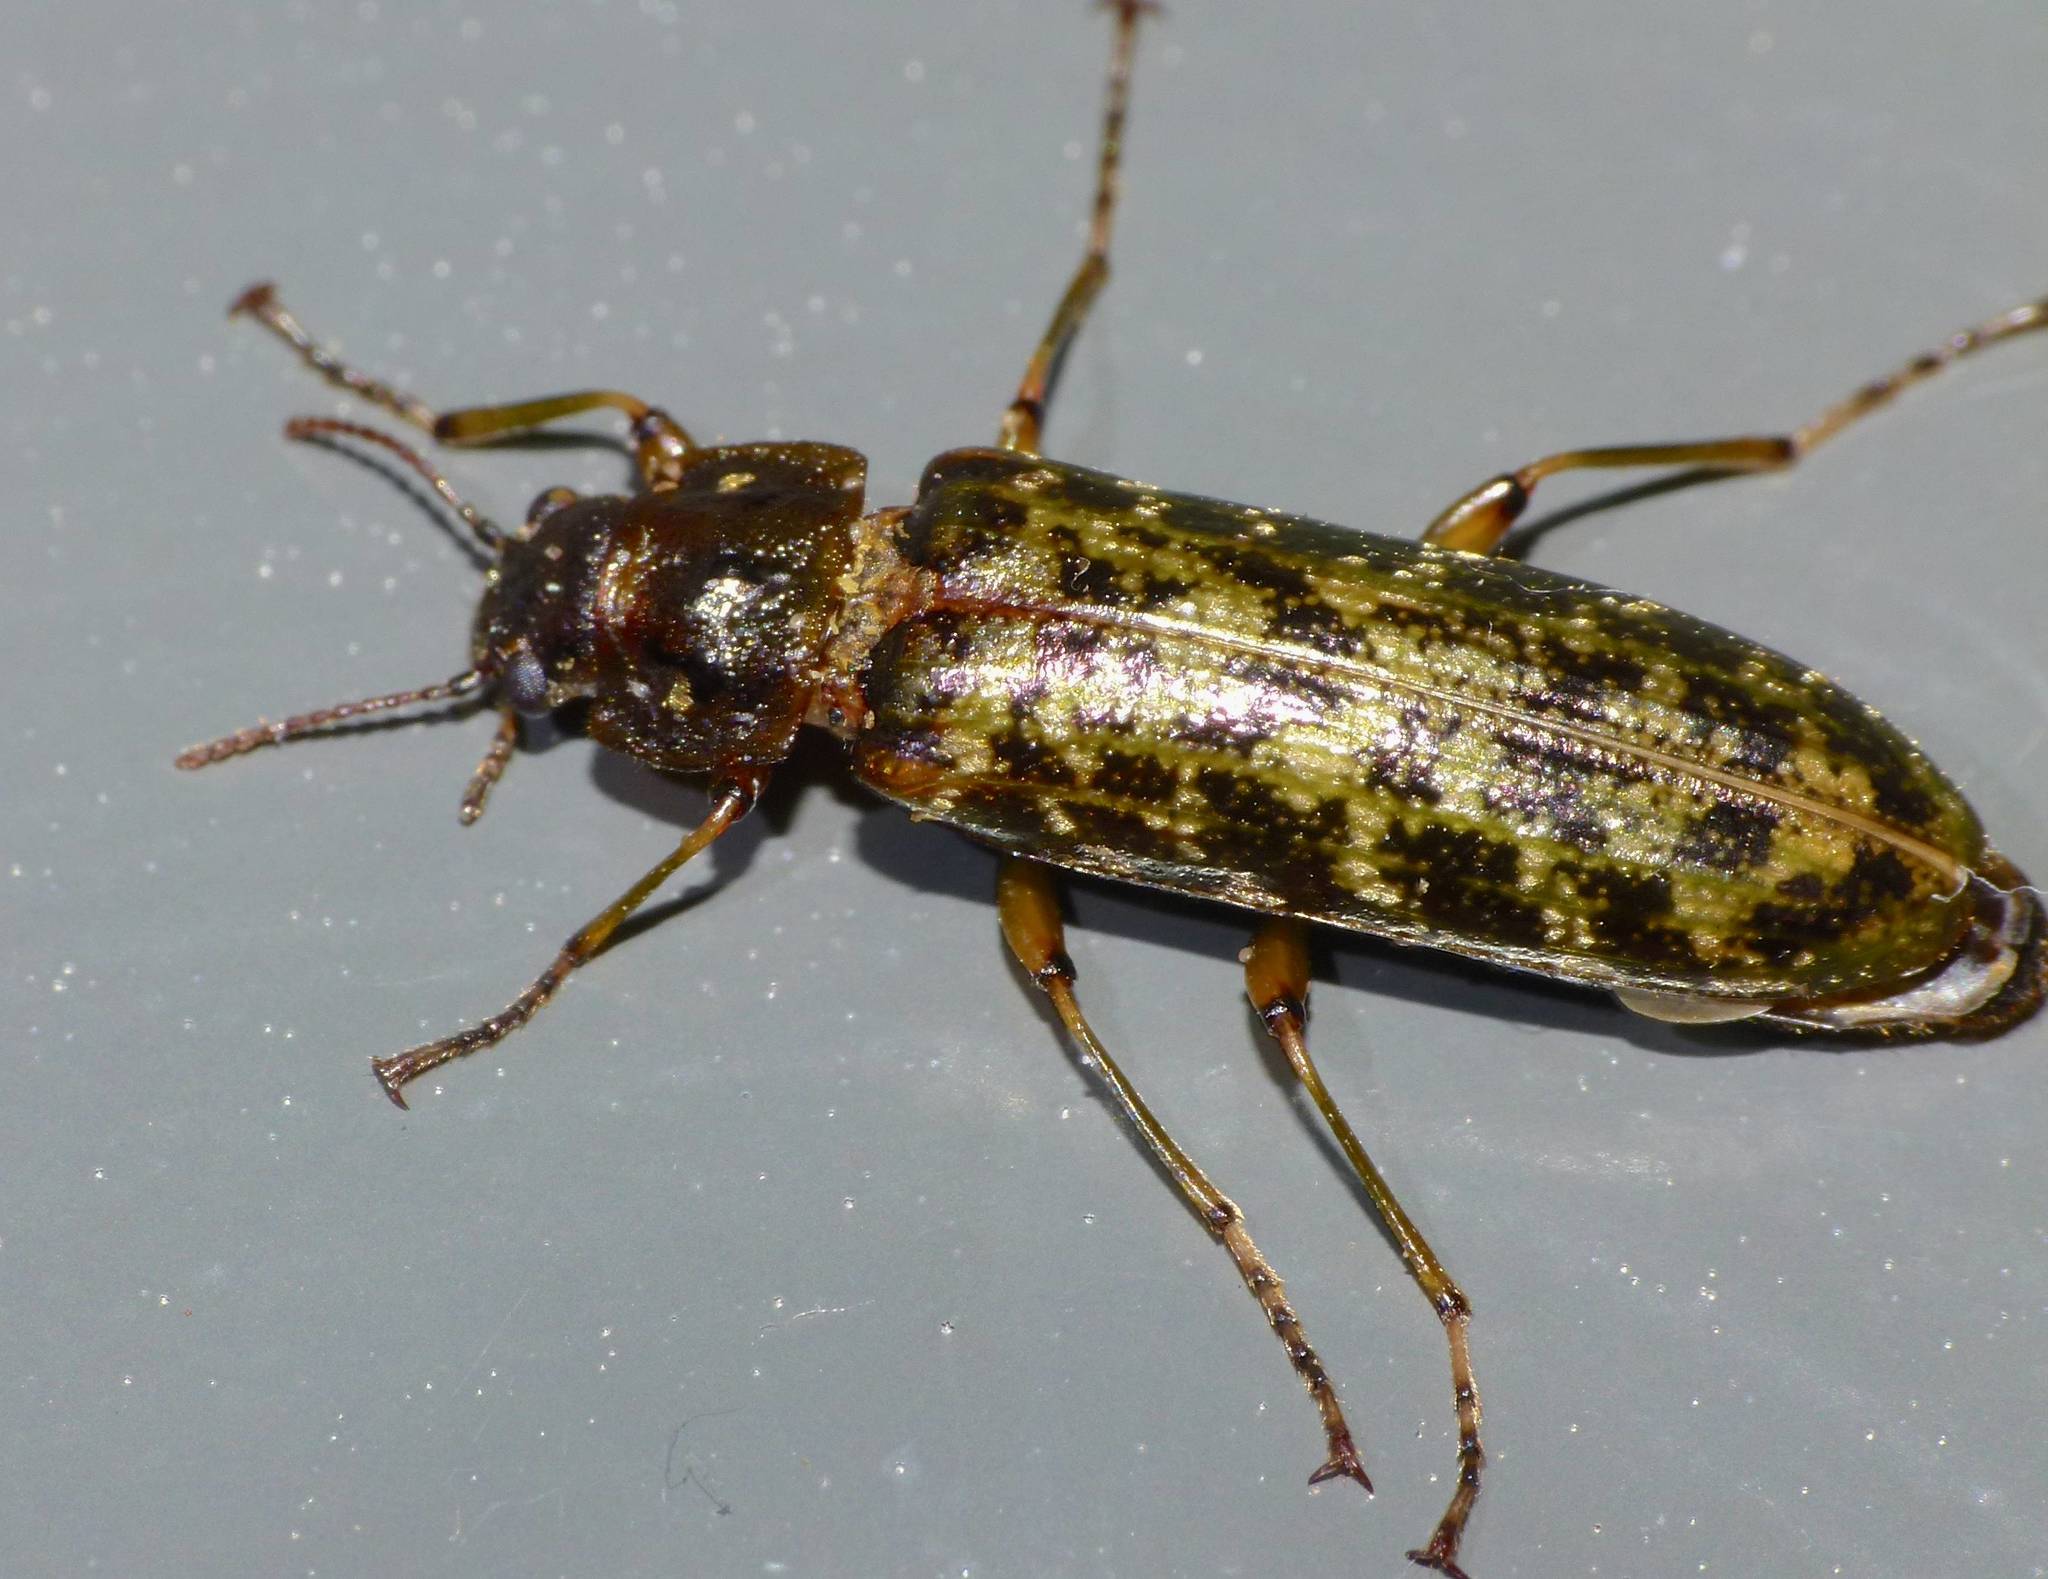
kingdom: Animalia
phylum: Arthropoda
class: Insecta
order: Coleoptera
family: Chalcodryidae
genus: Chalcodrya
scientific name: Chalcodrya
